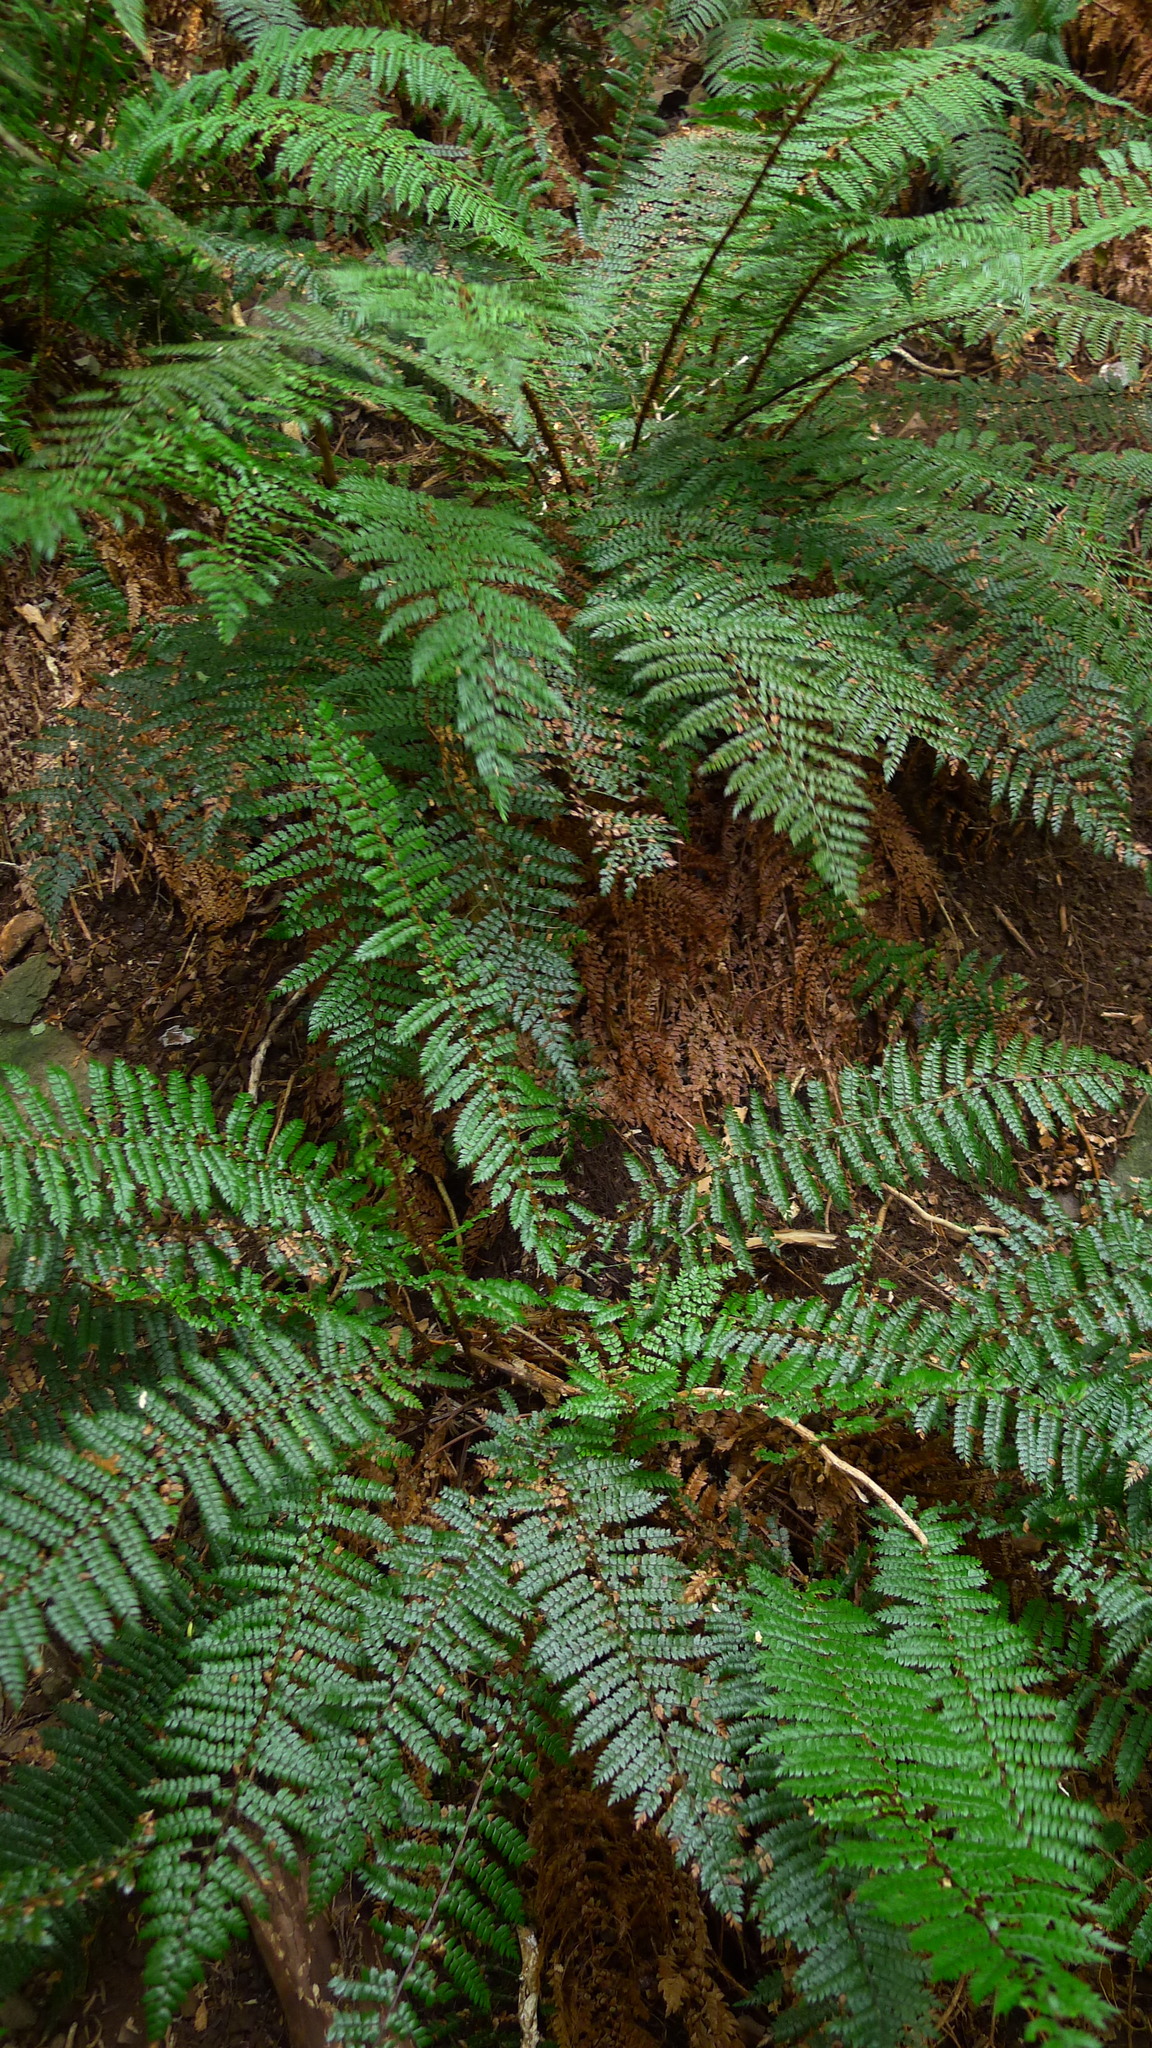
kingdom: Plantae
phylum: Tracheophyta
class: Polypodiopsida
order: Polypodiales
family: Dryopteridaceae
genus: Polystichum
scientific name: Polystichum vestitum
